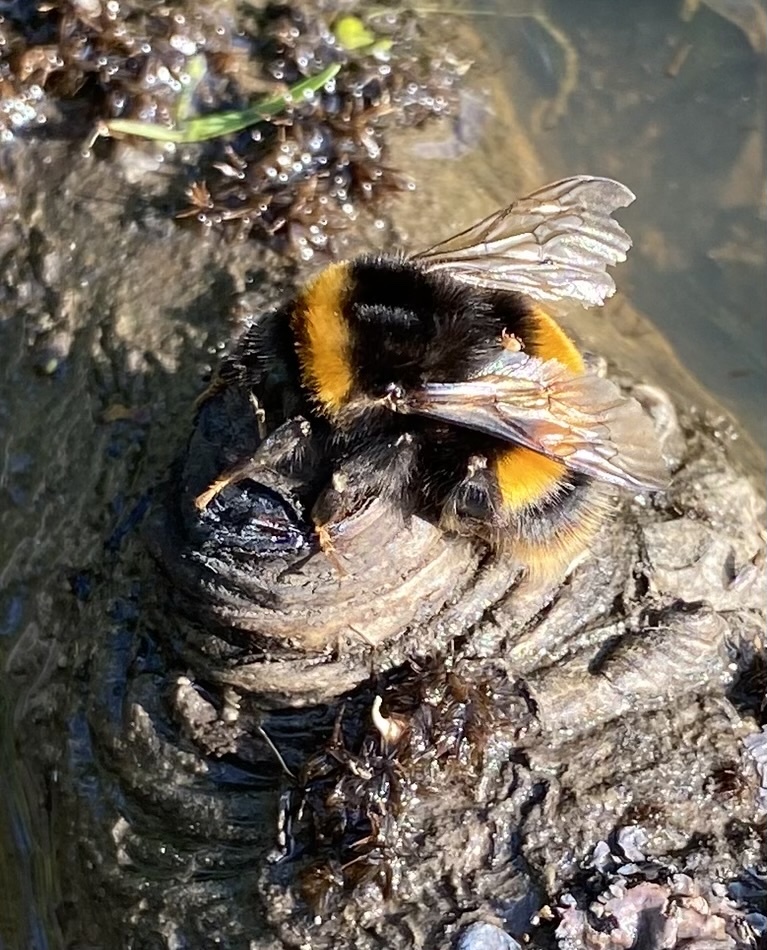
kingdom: Animalia
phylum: Arthropoda
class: Insecta
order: Hymenoptera
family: Apidae
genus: Bombus
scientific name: Bombus terrestris
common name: Buff-tailed bumblebee
